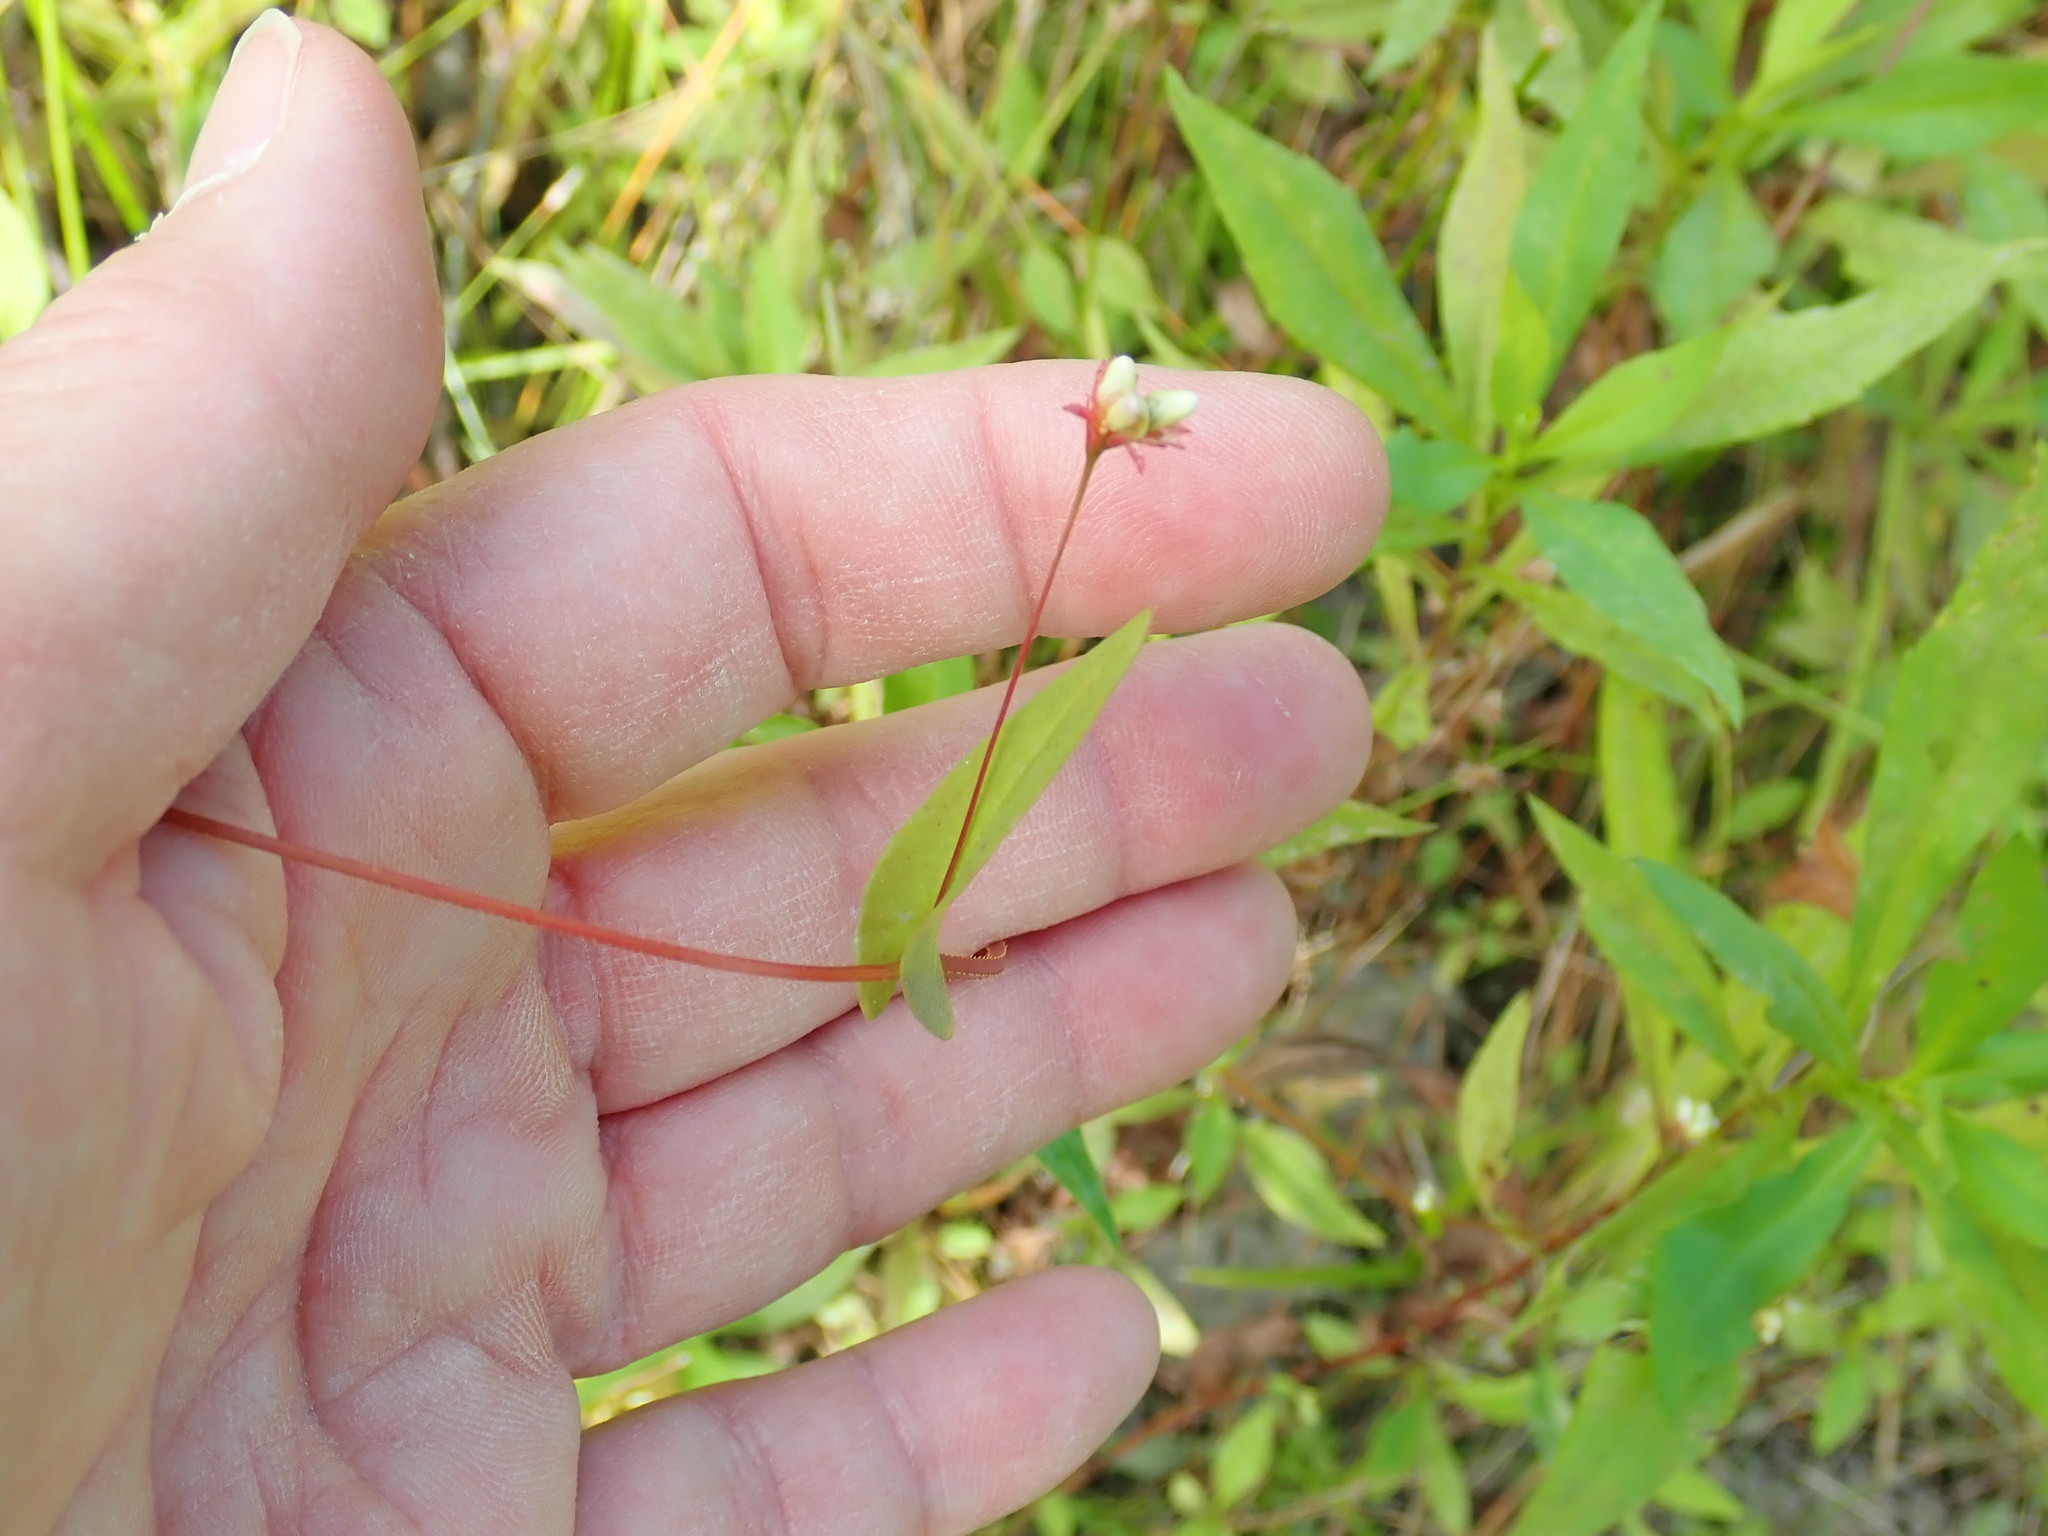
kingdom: Plantae
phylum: Tracheophyta
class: Magnoliopsida
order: Caryophyllales
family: Polygonaceae
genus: Persicaria
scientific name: Persicaria sagittata
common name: American tearthumb
